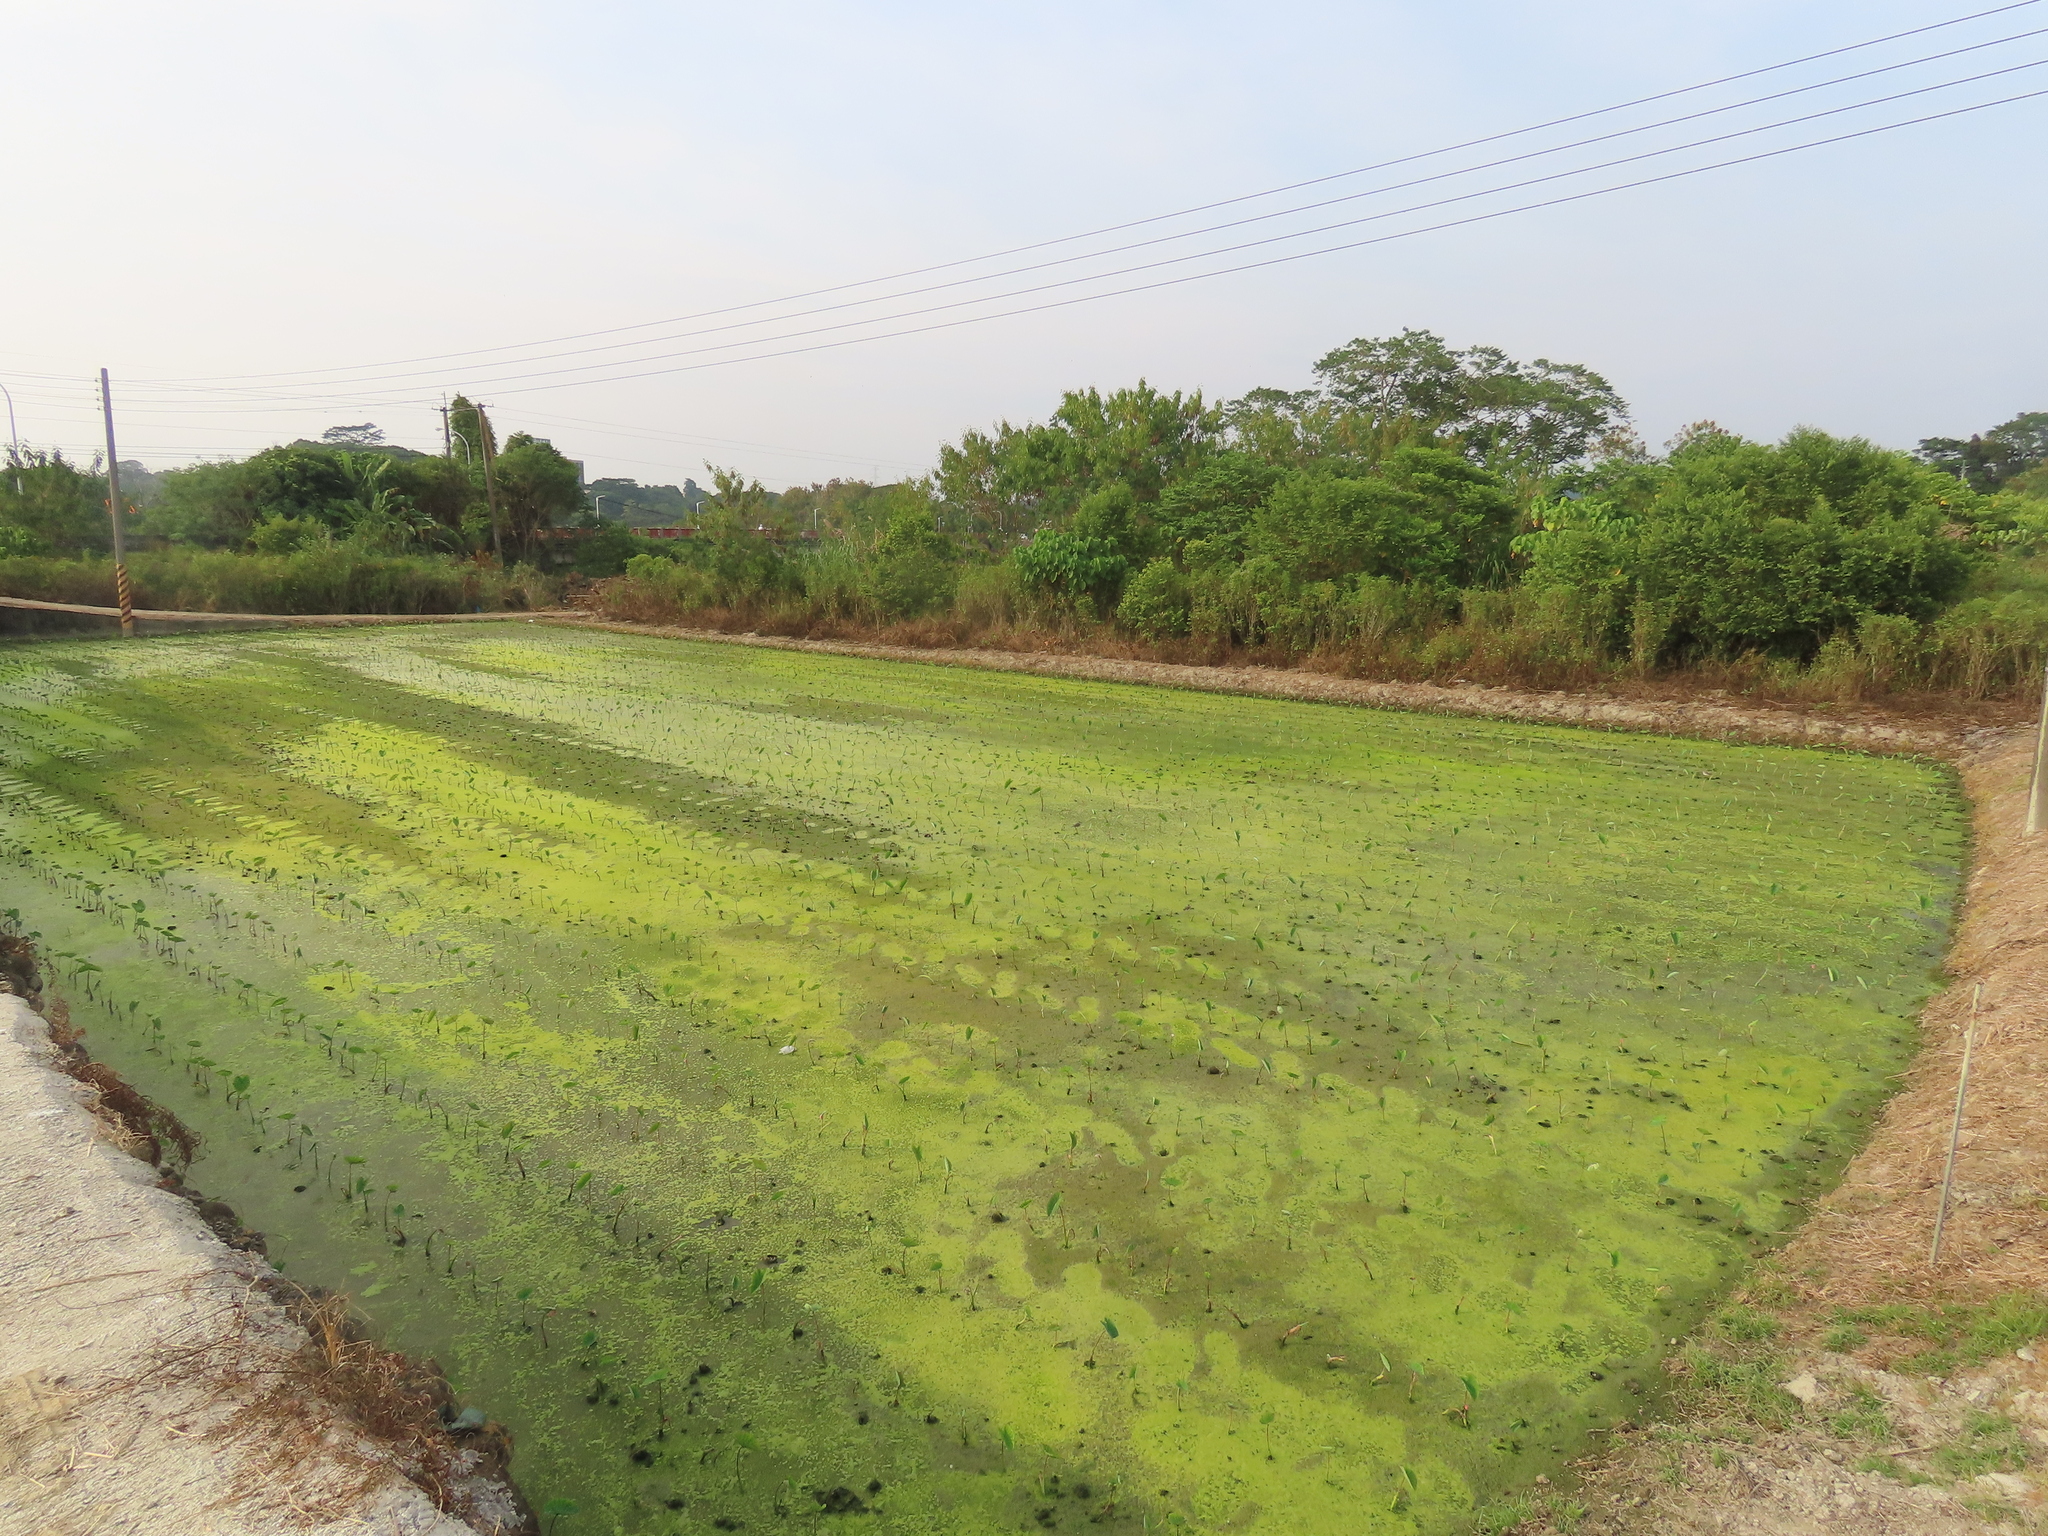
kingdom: Animalia
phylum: Chordata
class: Aves
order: Passeriformes
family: Motacillidae
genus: Motacilla
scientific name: Motacilla alba
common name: White wagtail
